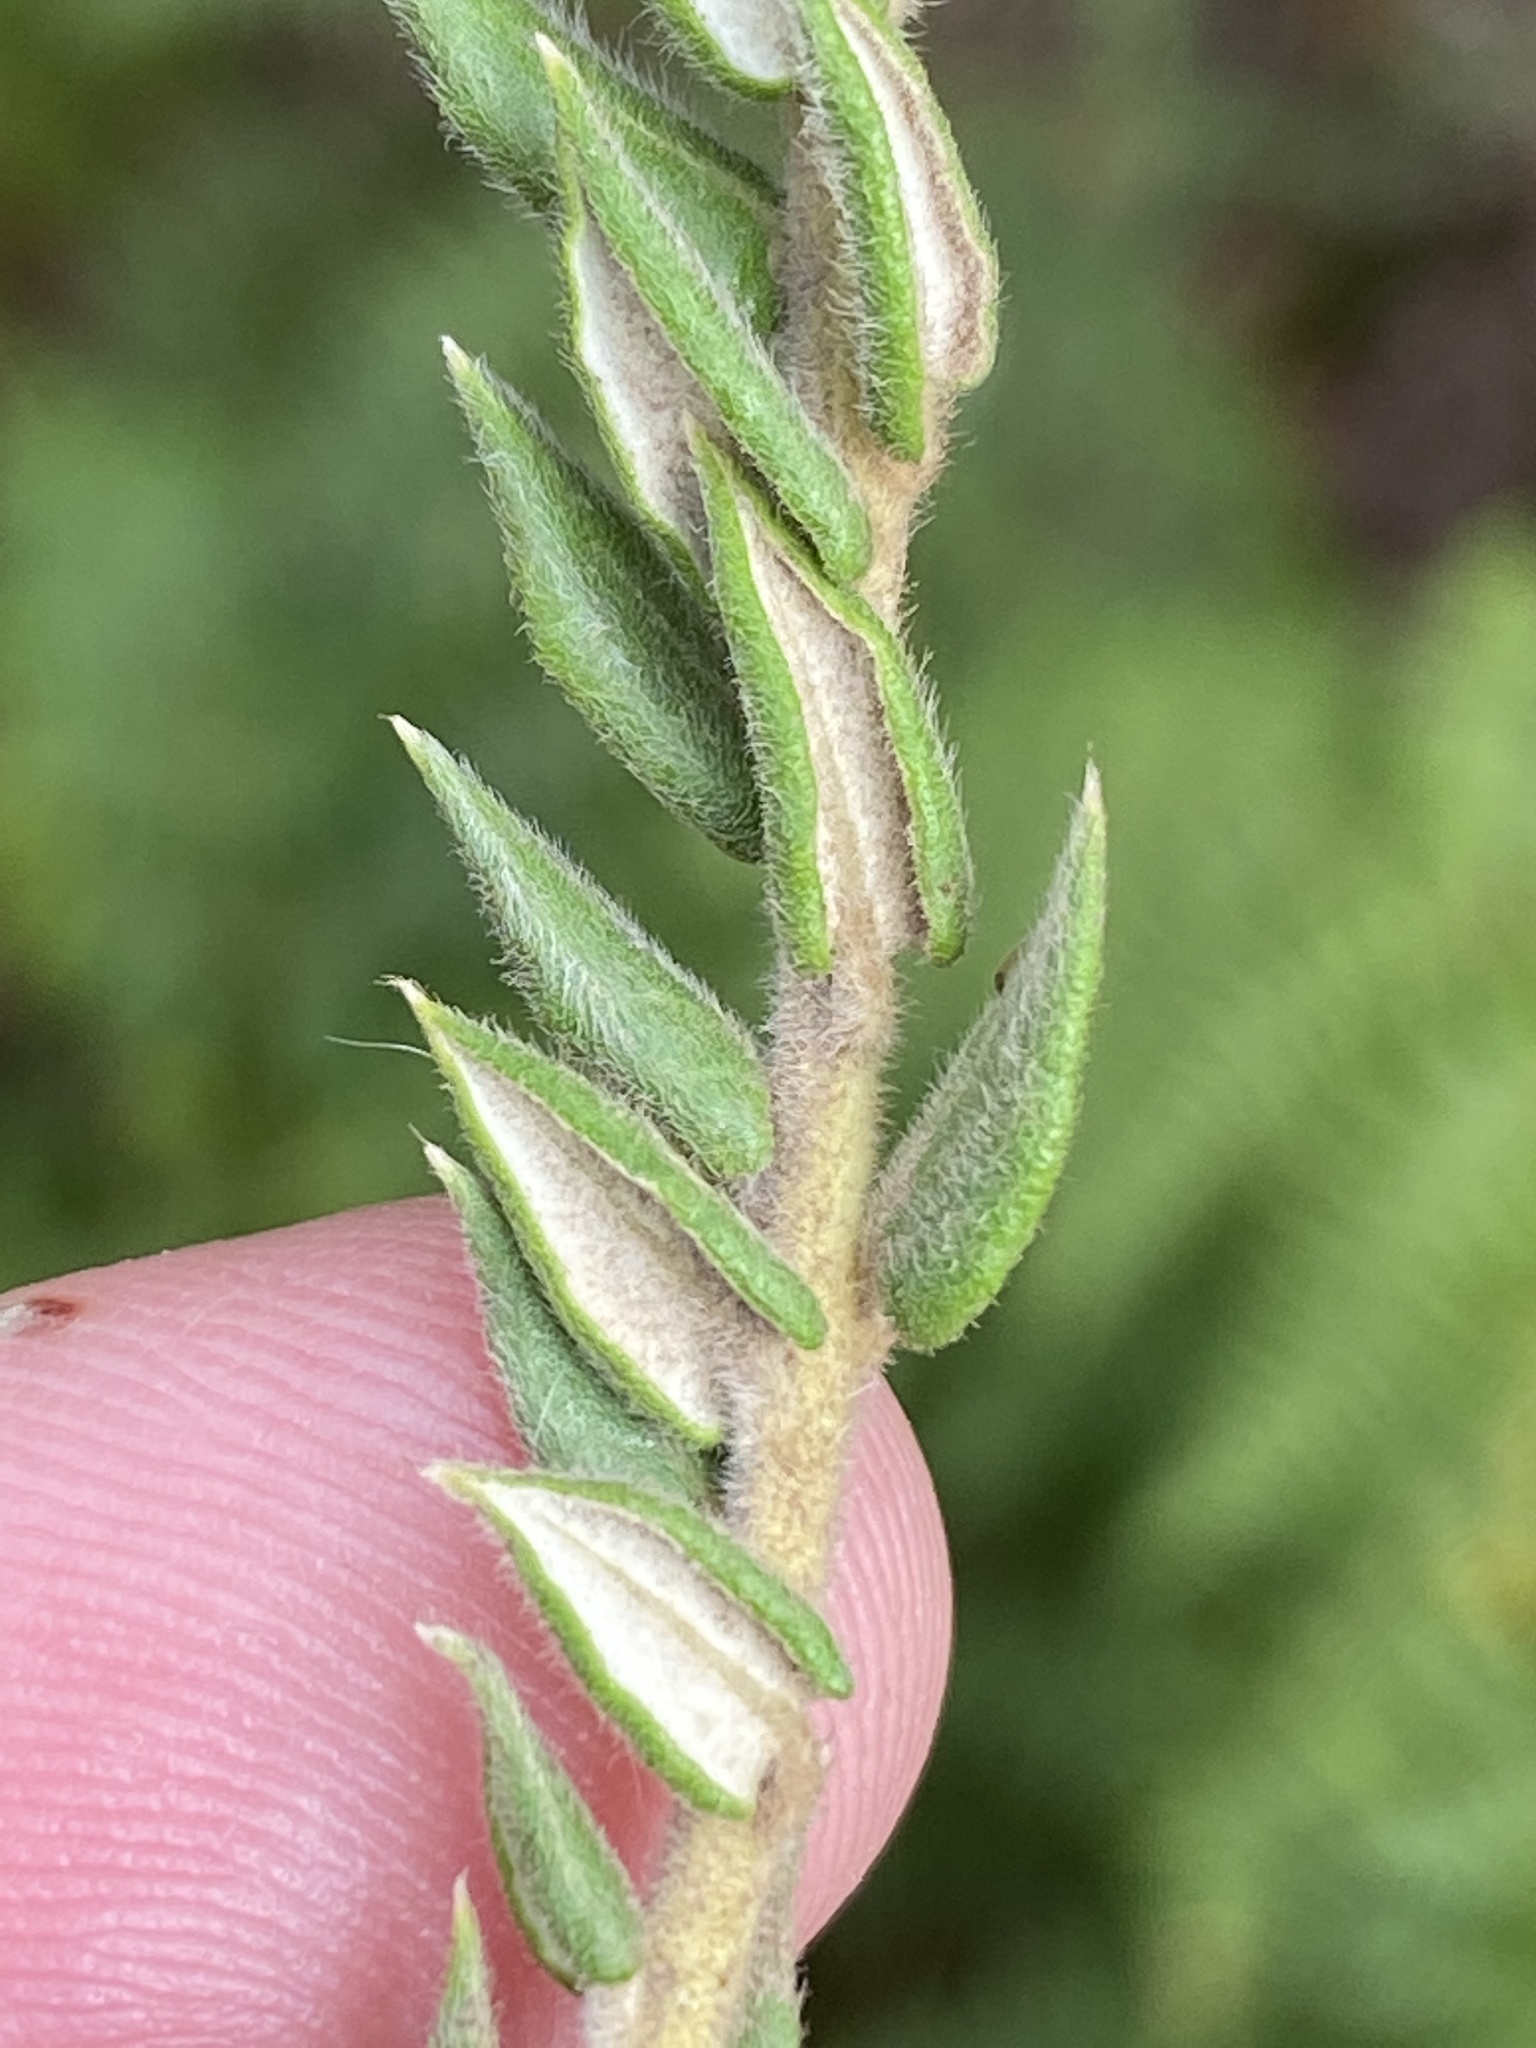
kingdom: Plantae
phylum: Tracheophyta
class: Magnoliopsida
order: Rosales
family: Rhamnaceae
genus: Phylica
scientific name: Phylica spicata
